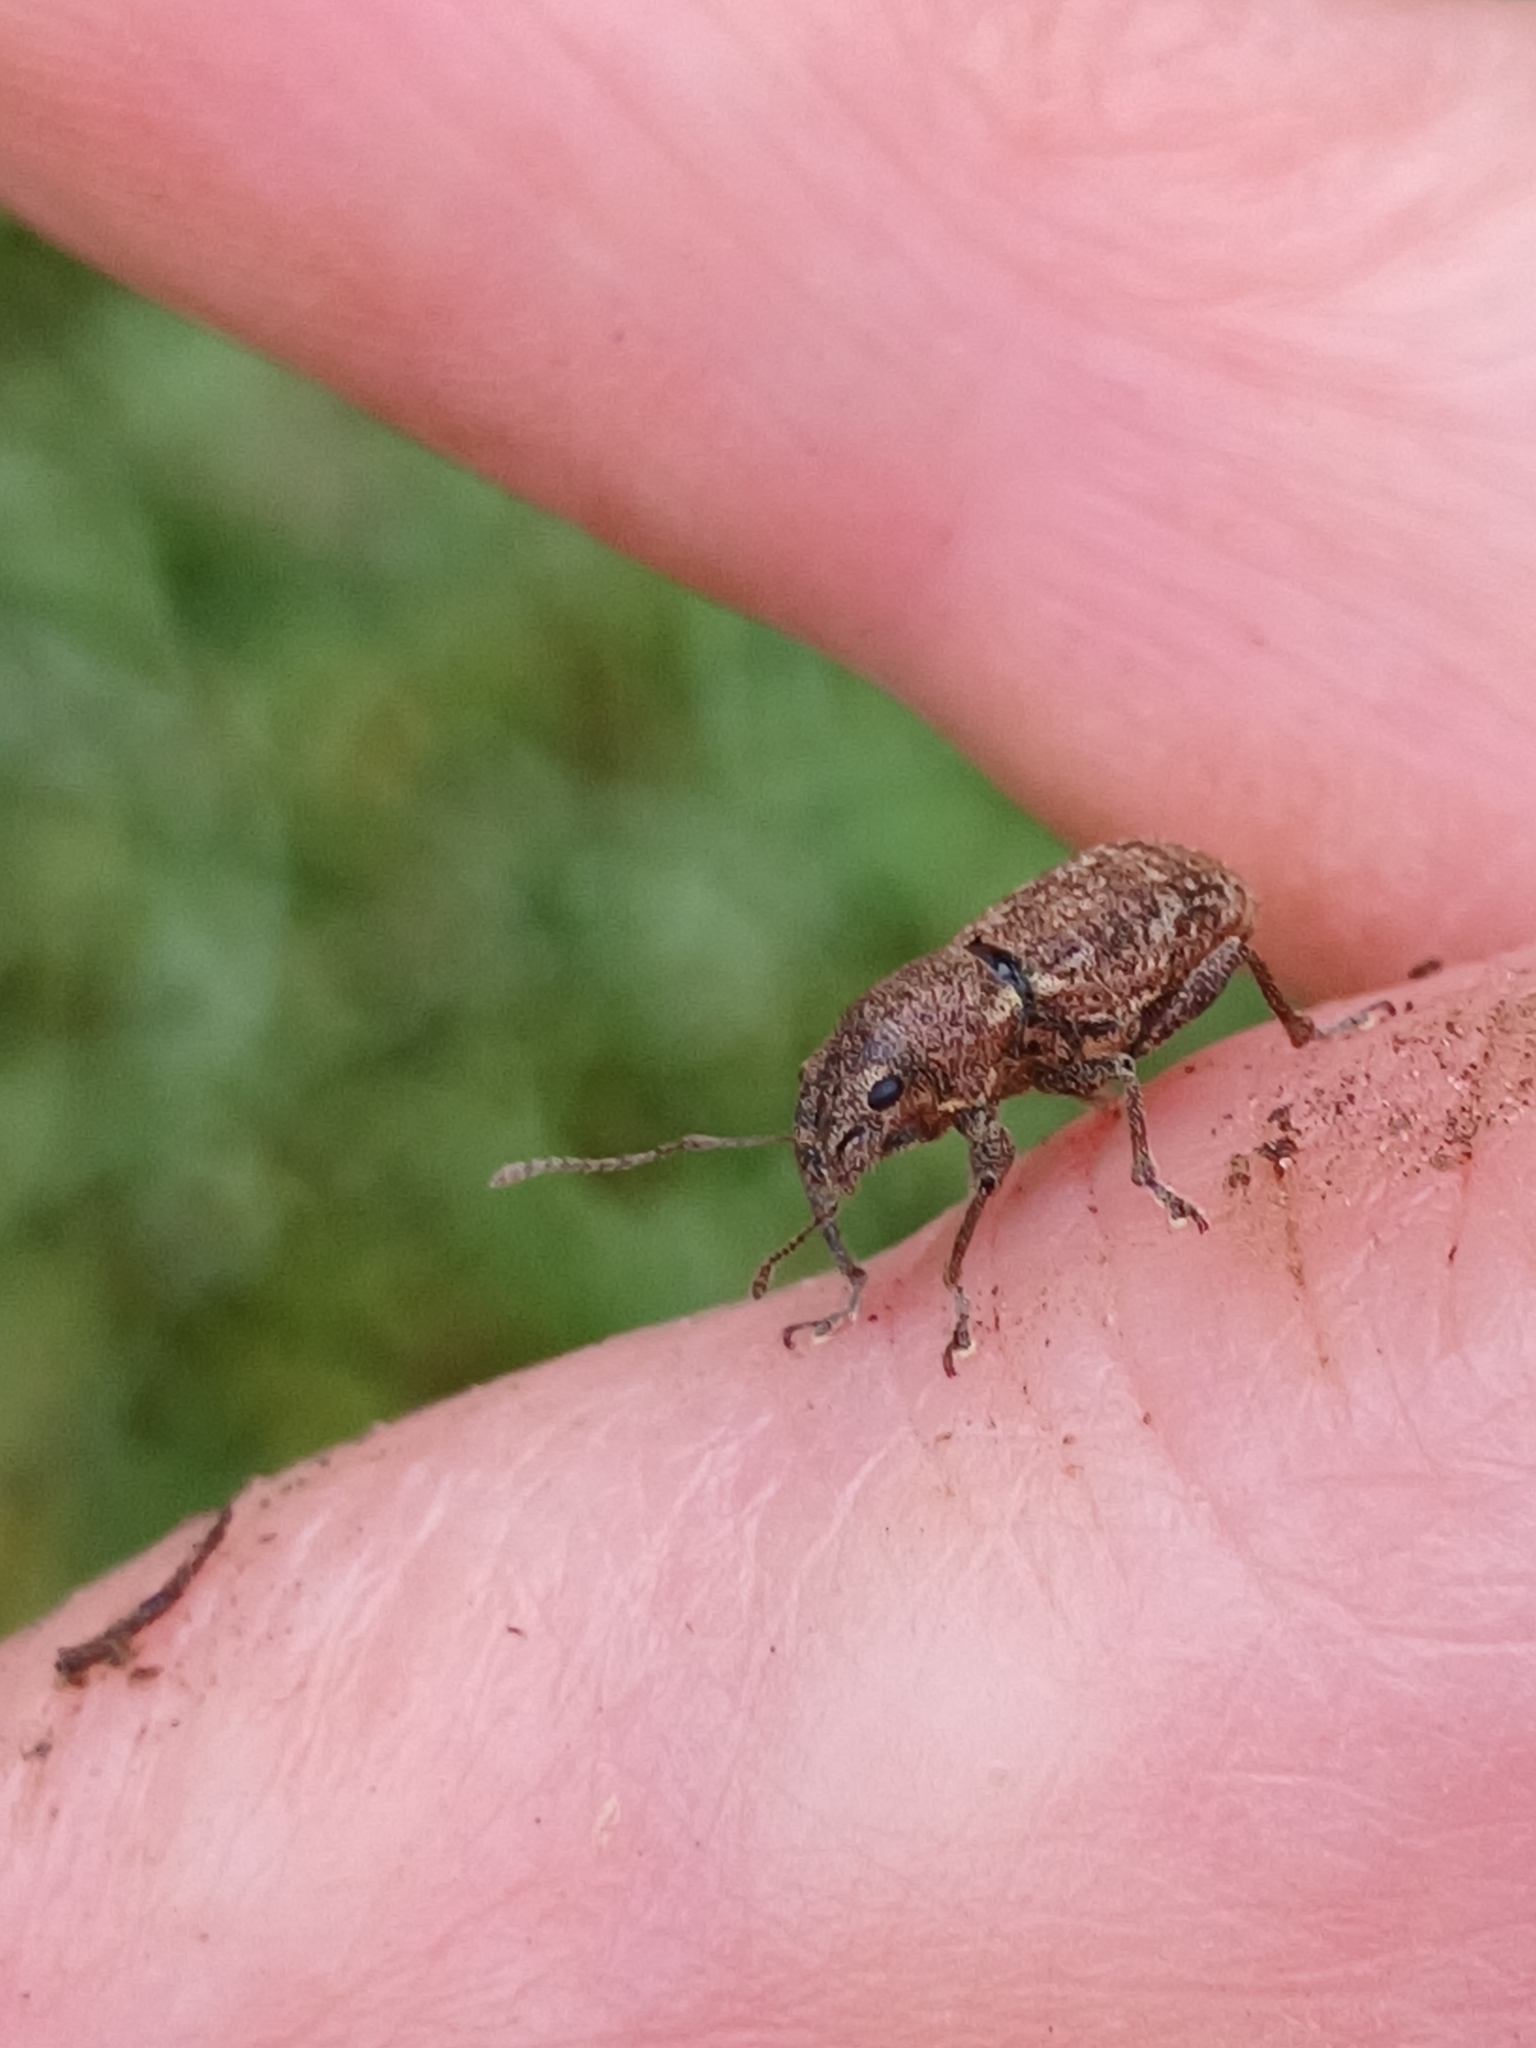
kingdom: Animalia
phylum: Arthropoda
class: Insecta
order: Coleoptera
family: Curculionidae
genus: Naupactus
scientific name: Naupactus cervinus
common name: Fuller rose beetle
